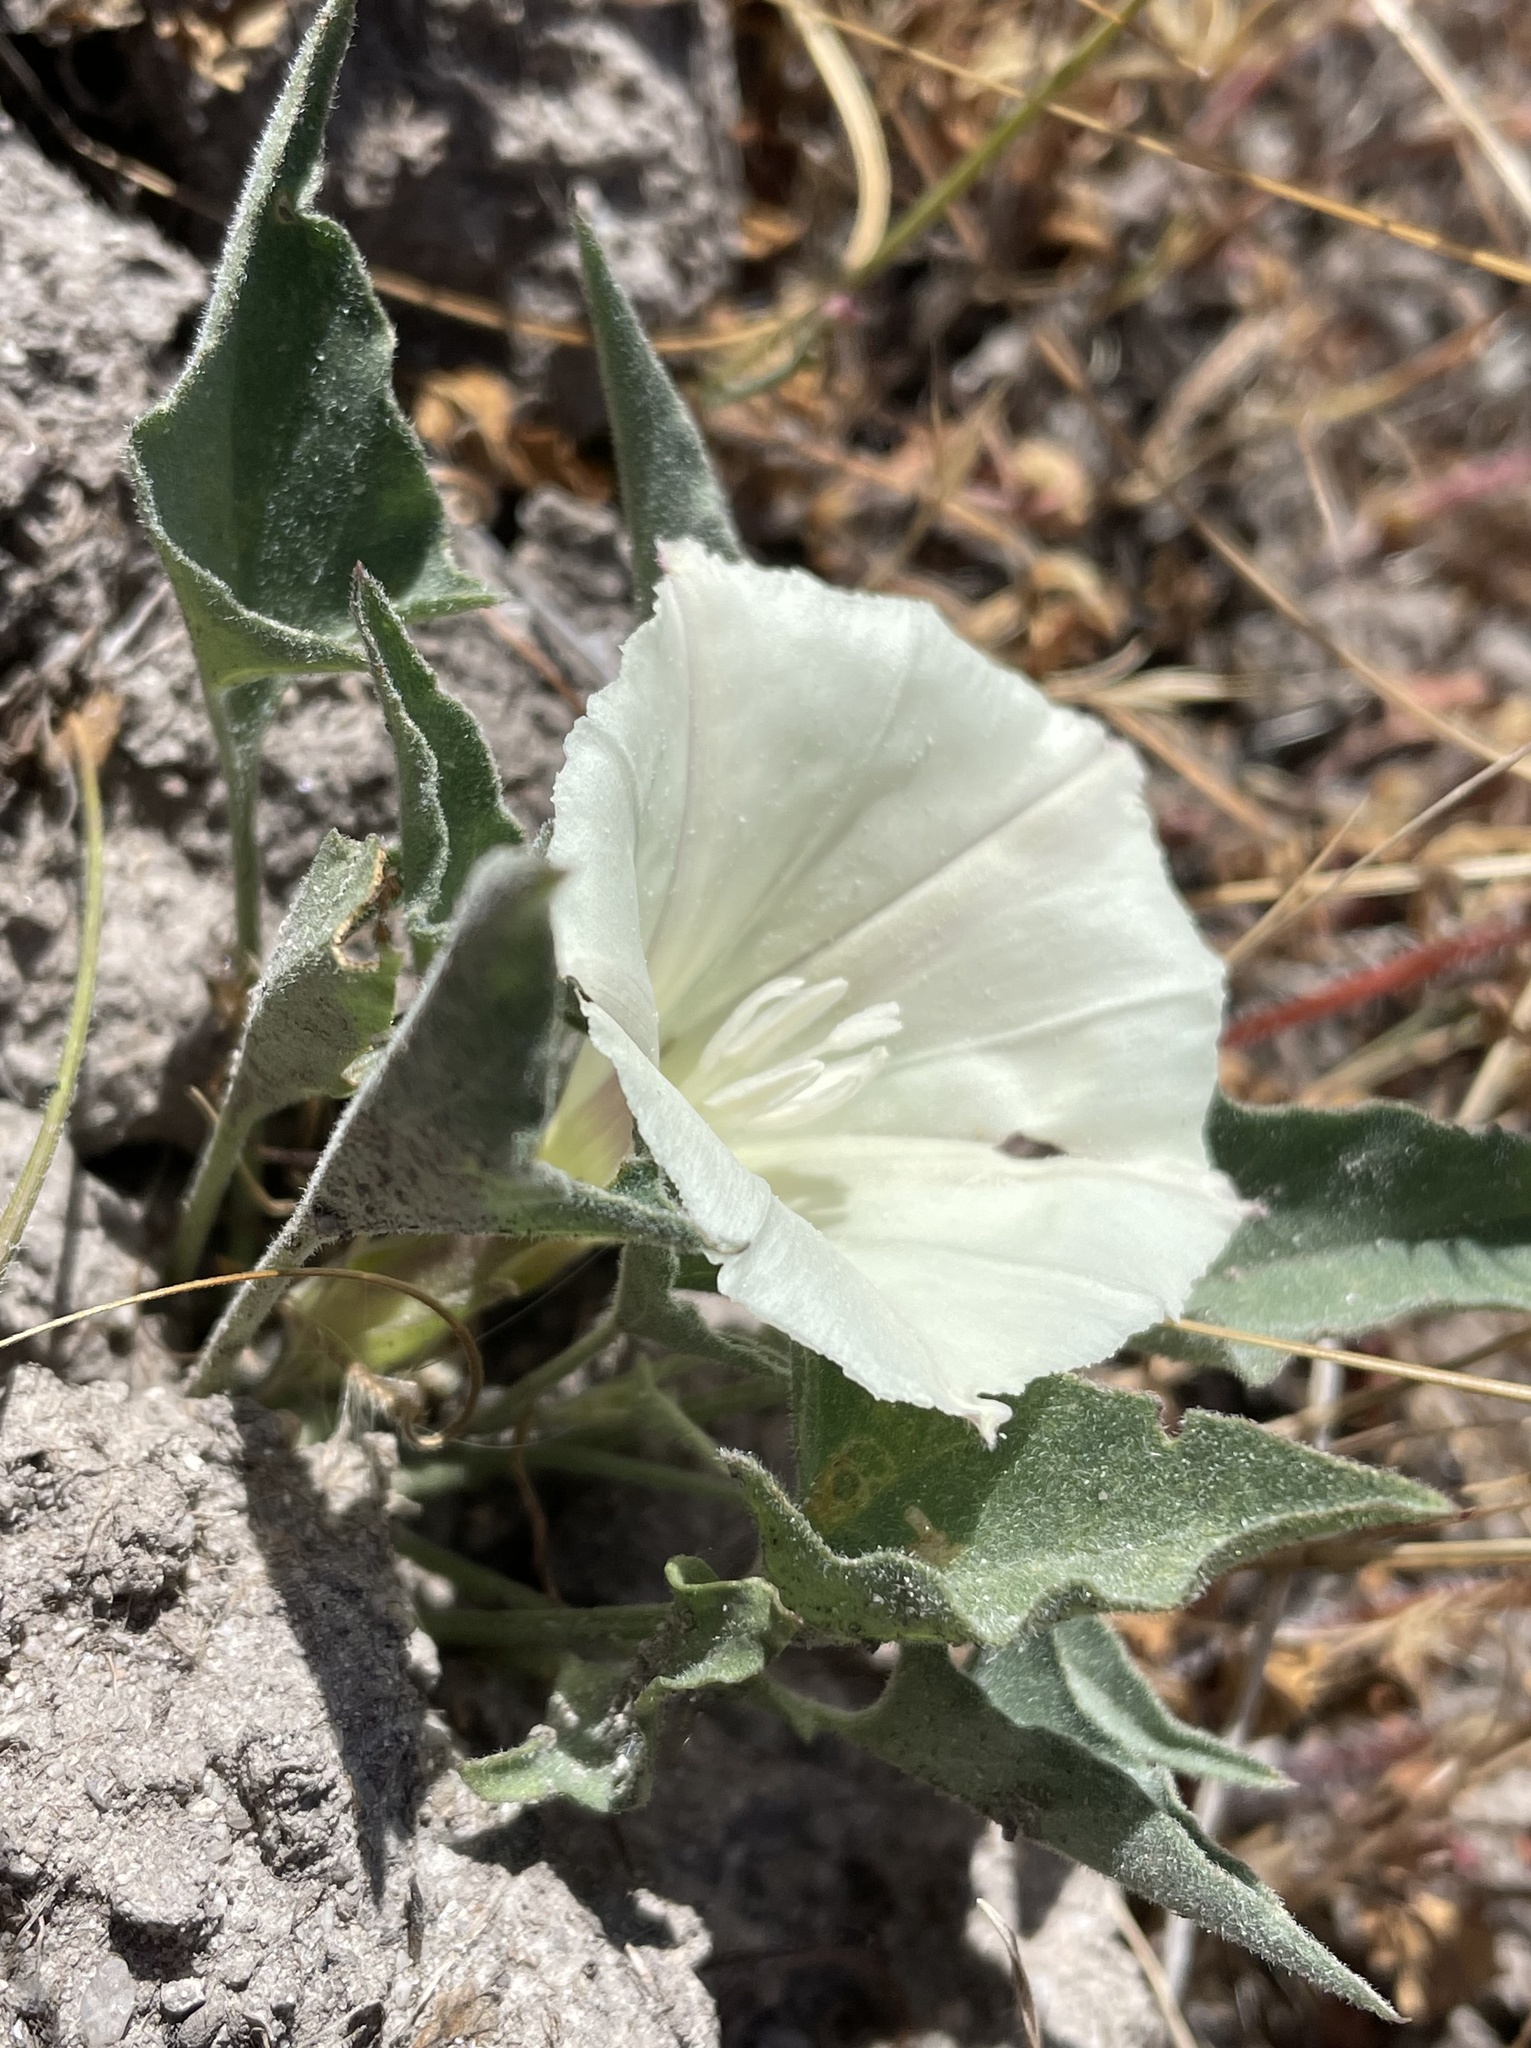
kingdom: Plantae
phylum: Tracheophyta
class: Magnoliopsida
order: Solanales
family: Convolvulaceae
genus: Calystegia
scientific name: Calystegia subacaulis
